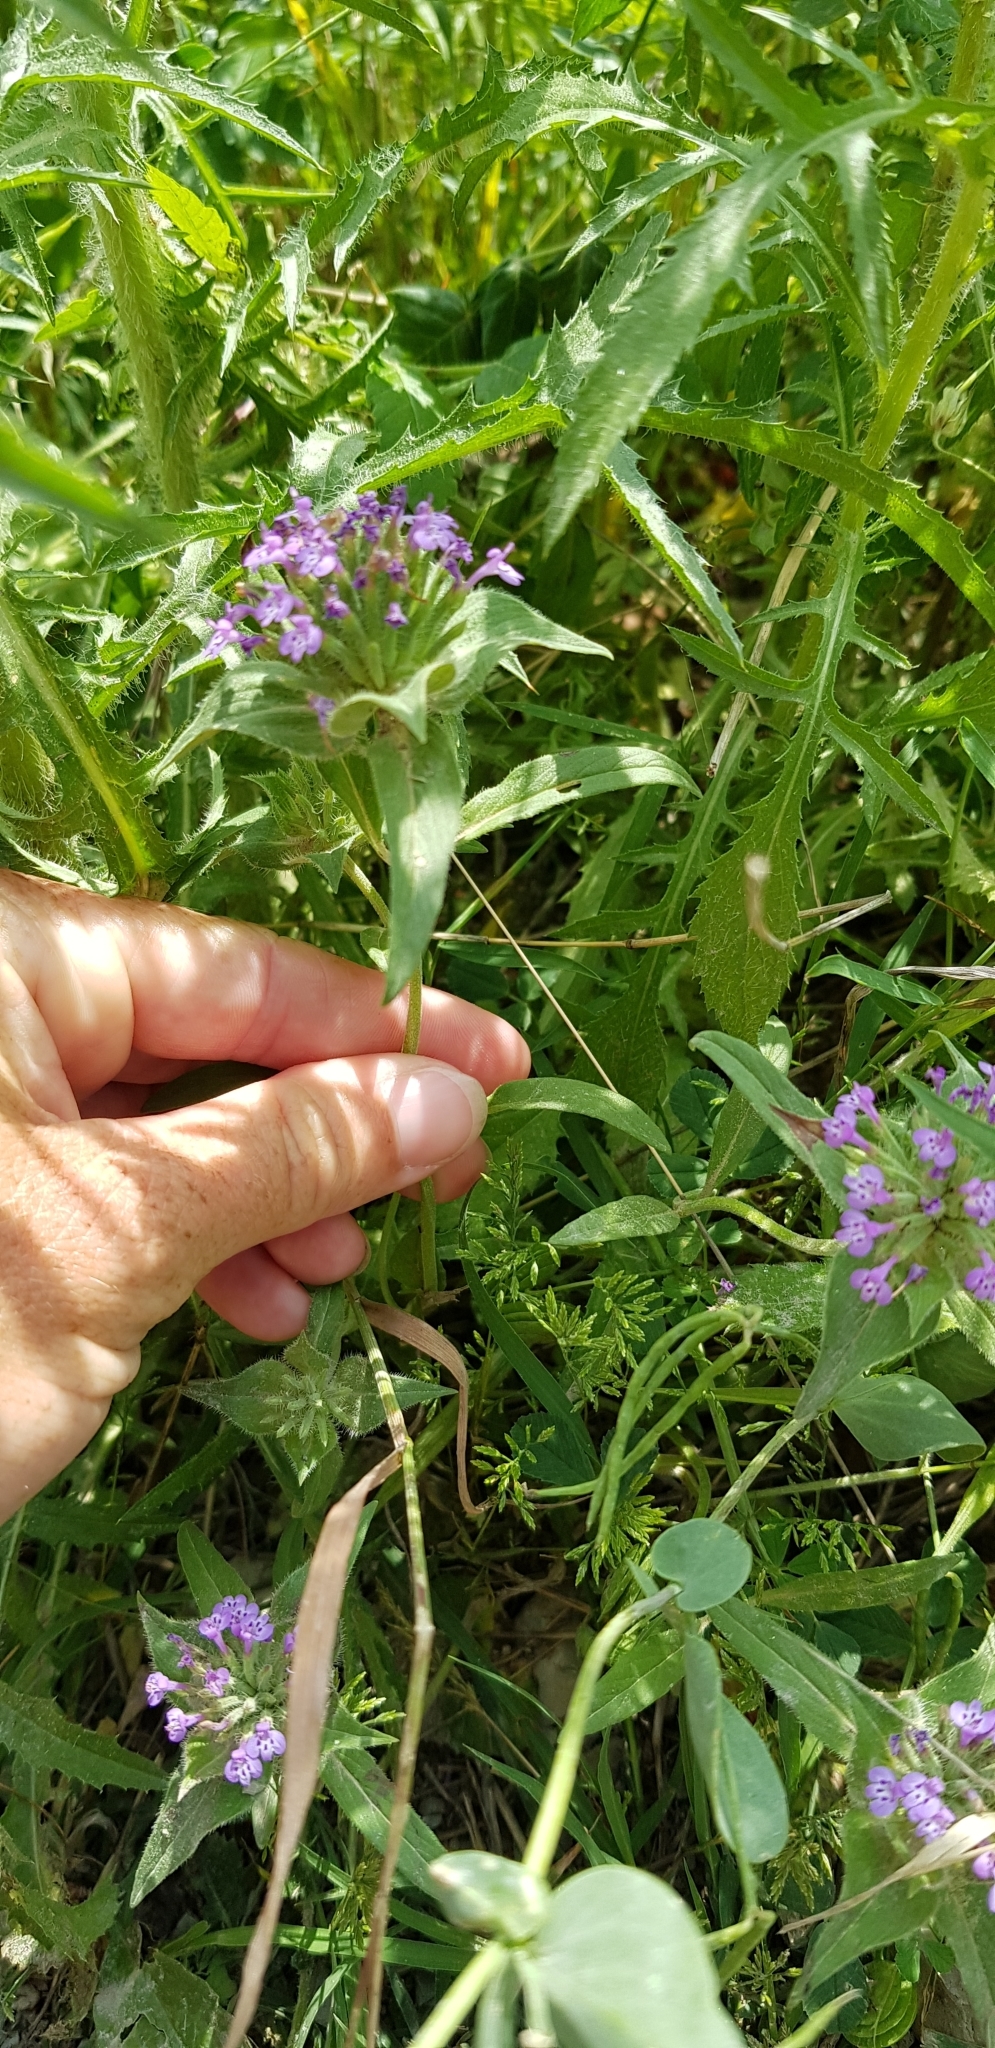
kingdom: Plantae
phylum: Tracheophyta
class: Magnoliopsida
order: Lamiales
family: Lamiaceae
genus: Ziziphora
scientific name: Ziziphora capitata
